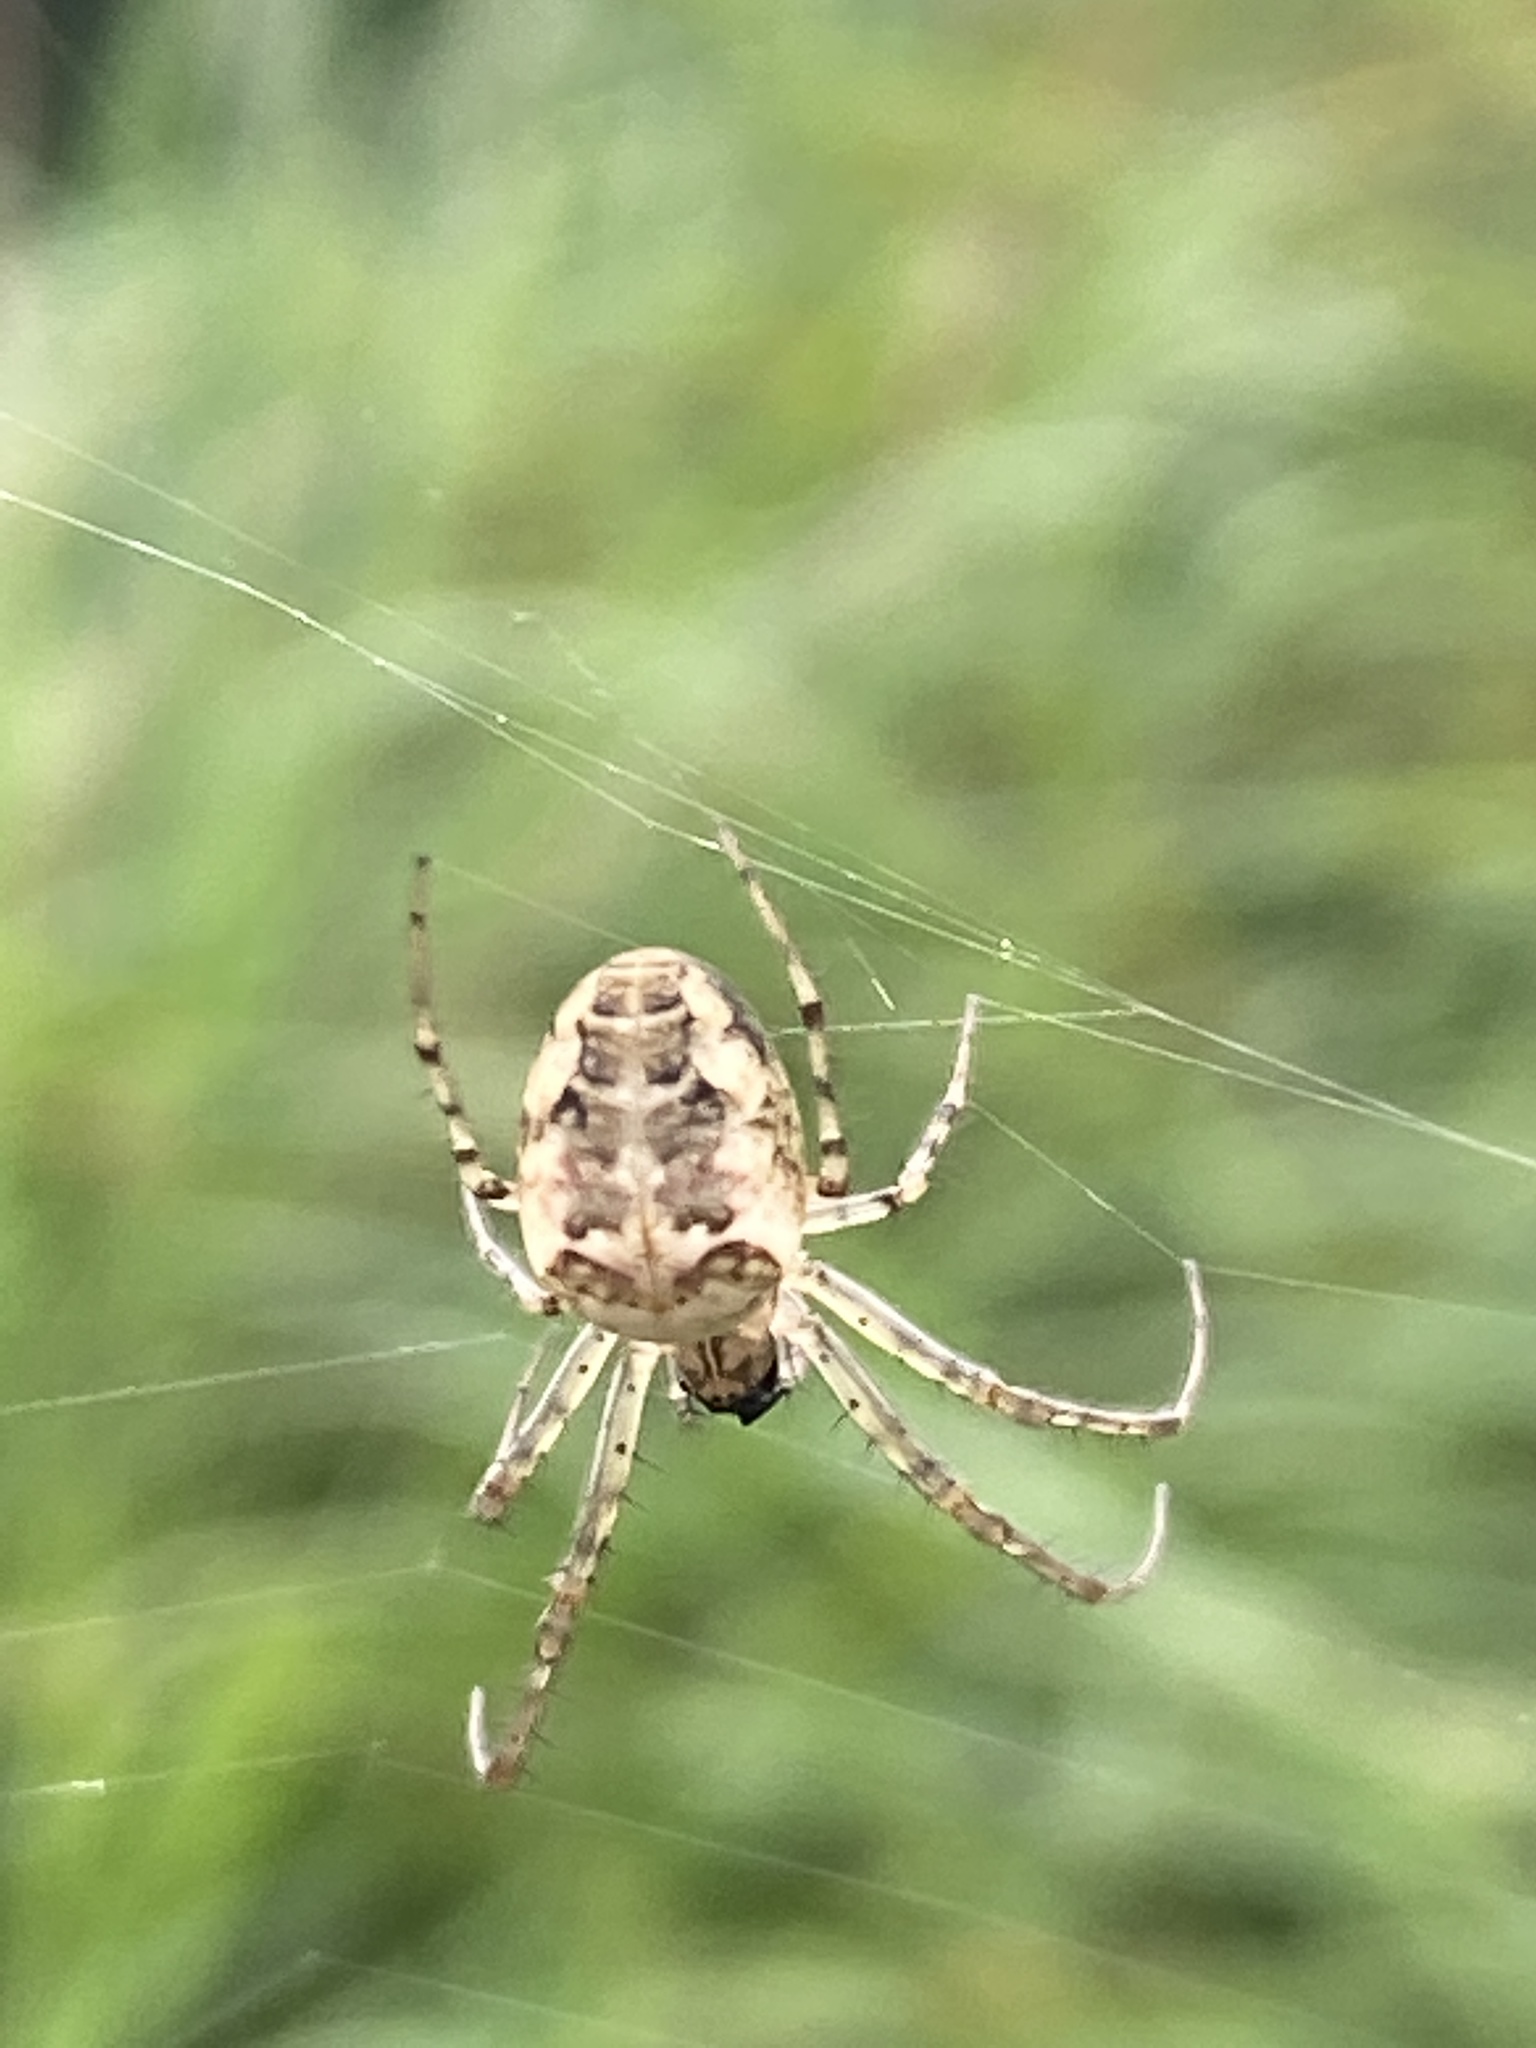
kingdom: Animalia
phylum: Arthropoda
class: Arachnida
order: Araneae
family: Tetragnathidae
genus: Metellina
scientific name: Metellina
